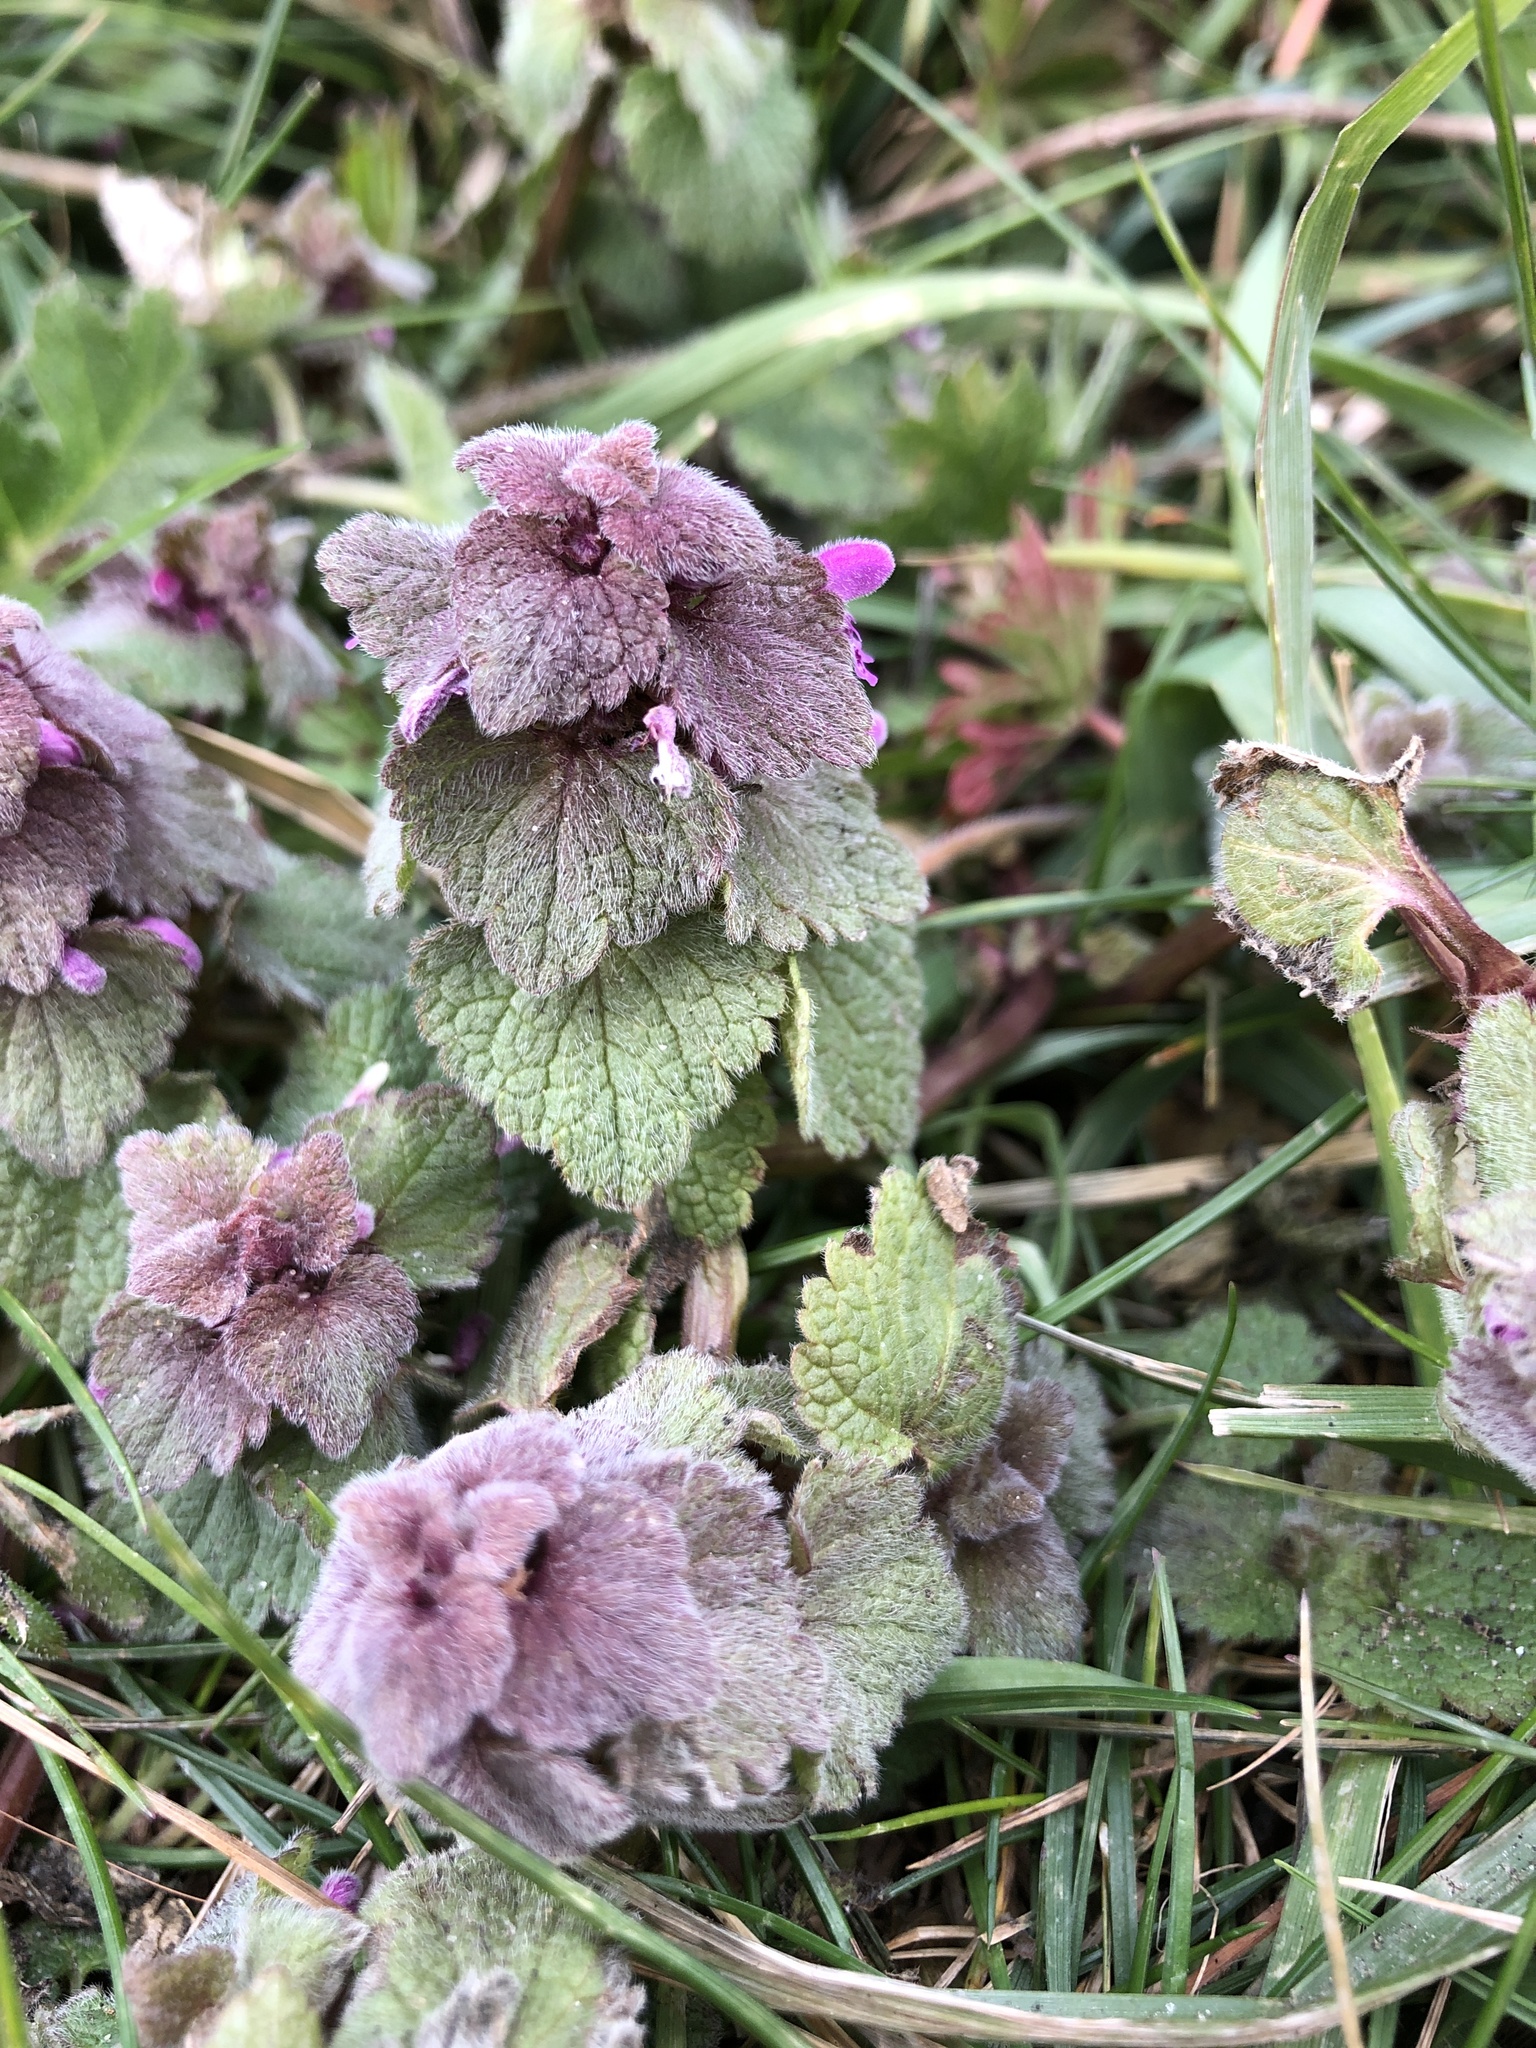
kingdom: Plantae
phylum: Tracheophyta
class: Magnoliopsida
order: Lamiales
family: Lamiaceae
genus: Lamium
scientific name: Lamium purpureum
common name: Red dead-nettle
